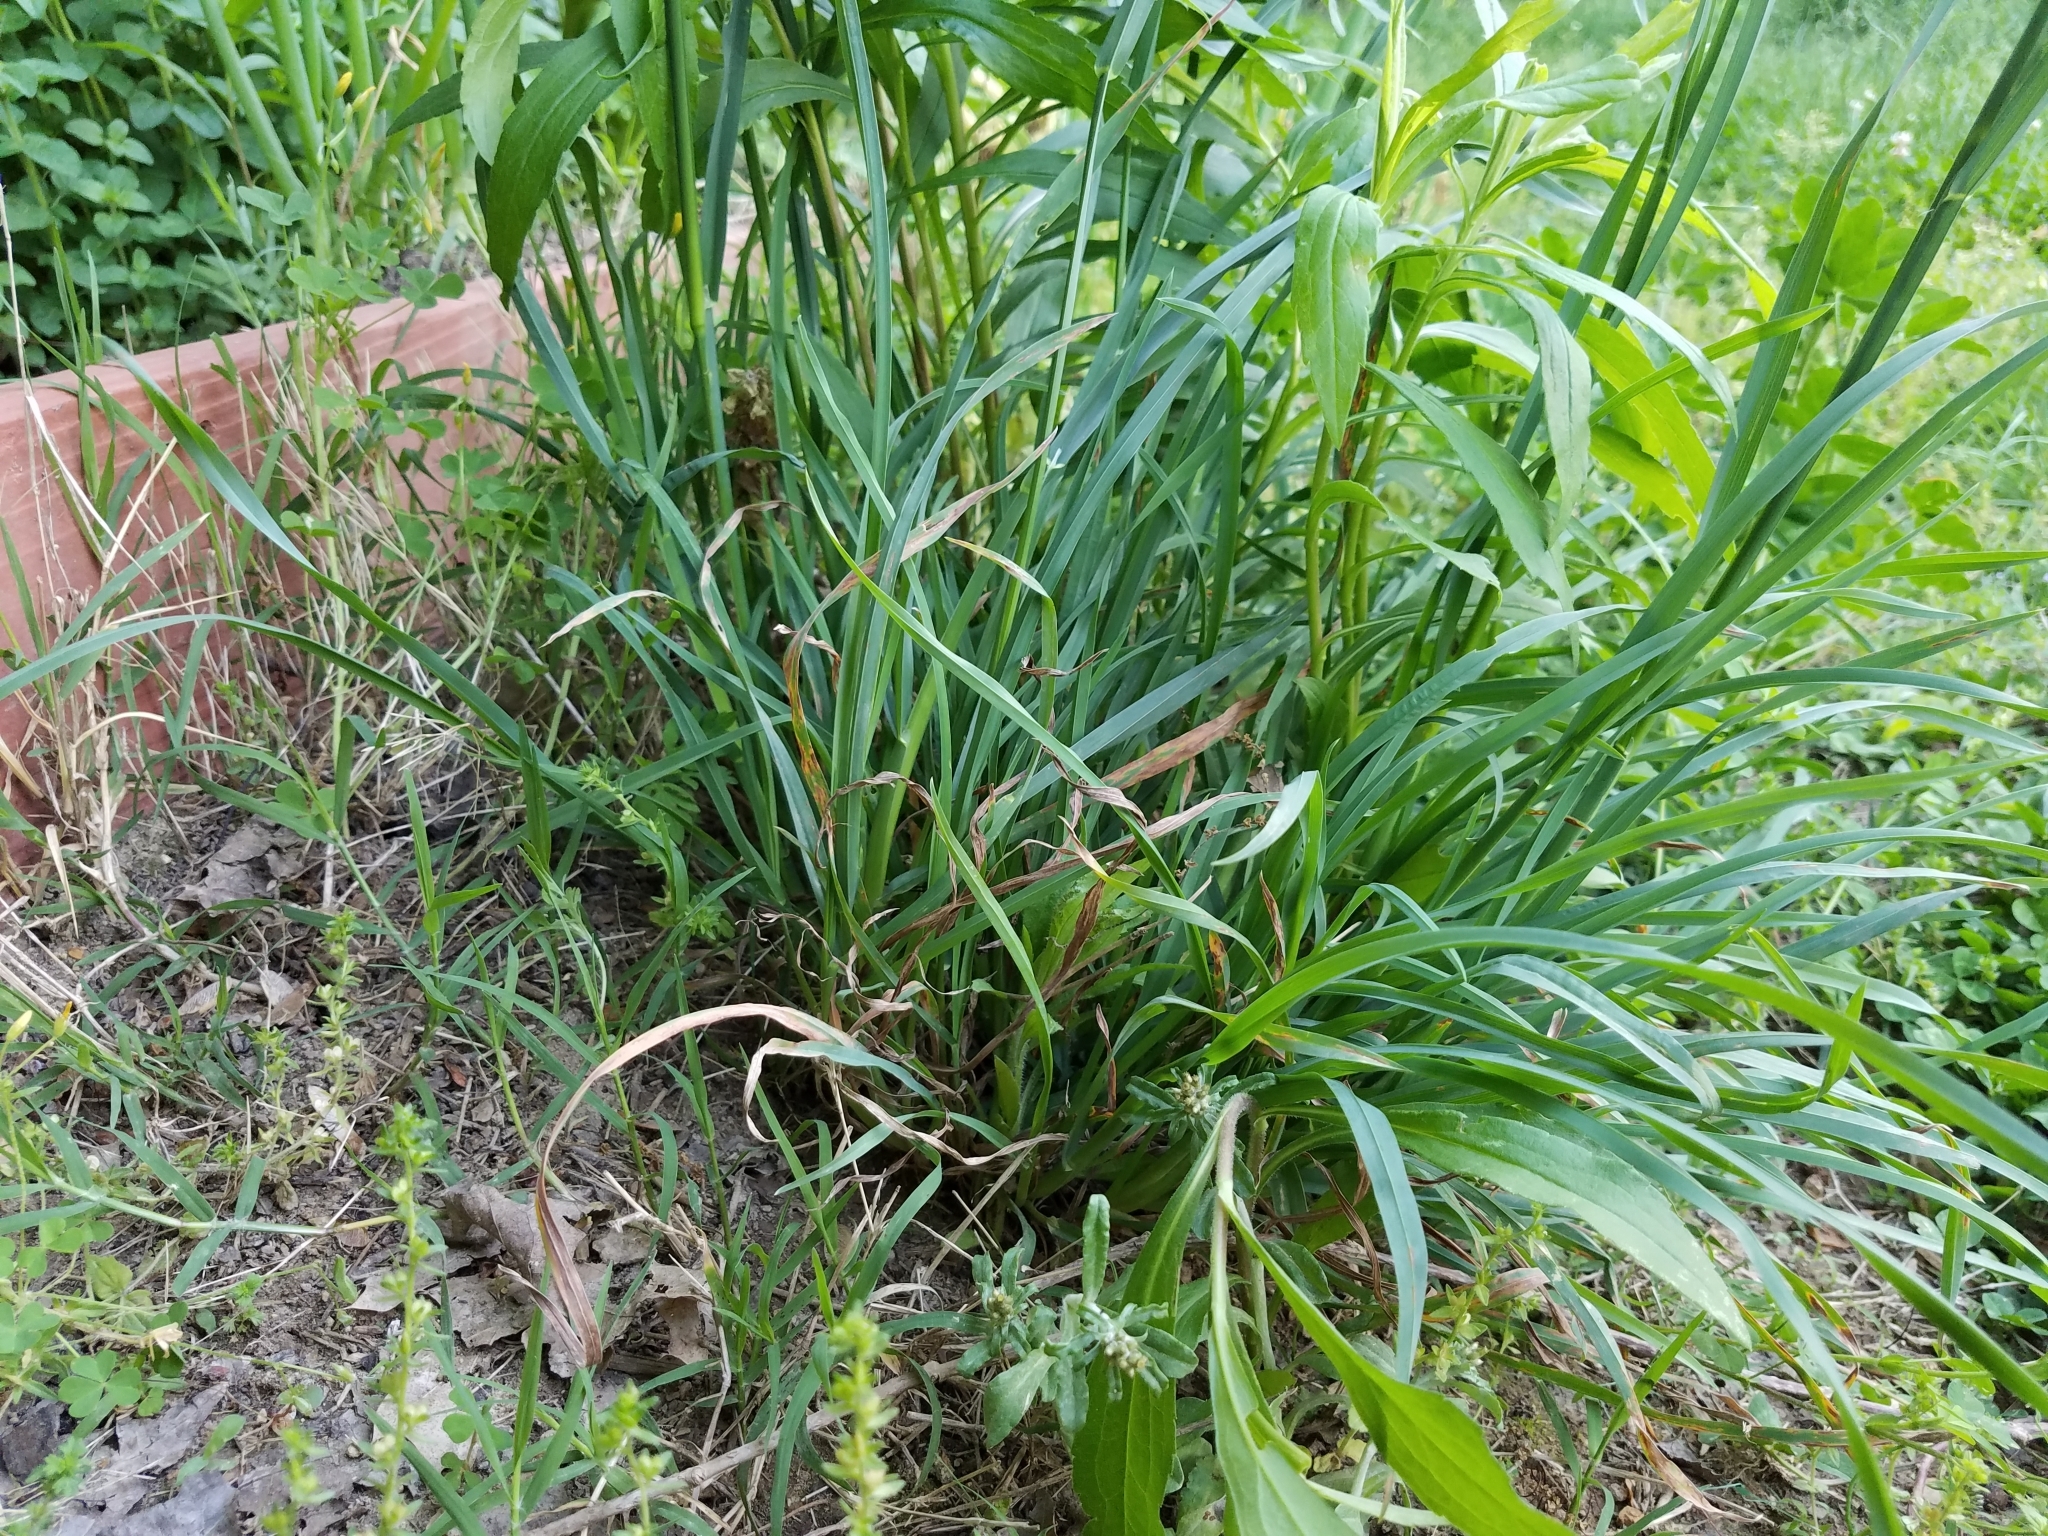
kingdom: Plantae
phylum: Tracheophyta
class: Liliopsida
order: Poales
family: Poaceae
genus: Dactylis
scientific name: Dactylis glomerata
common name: Orchardgrass
